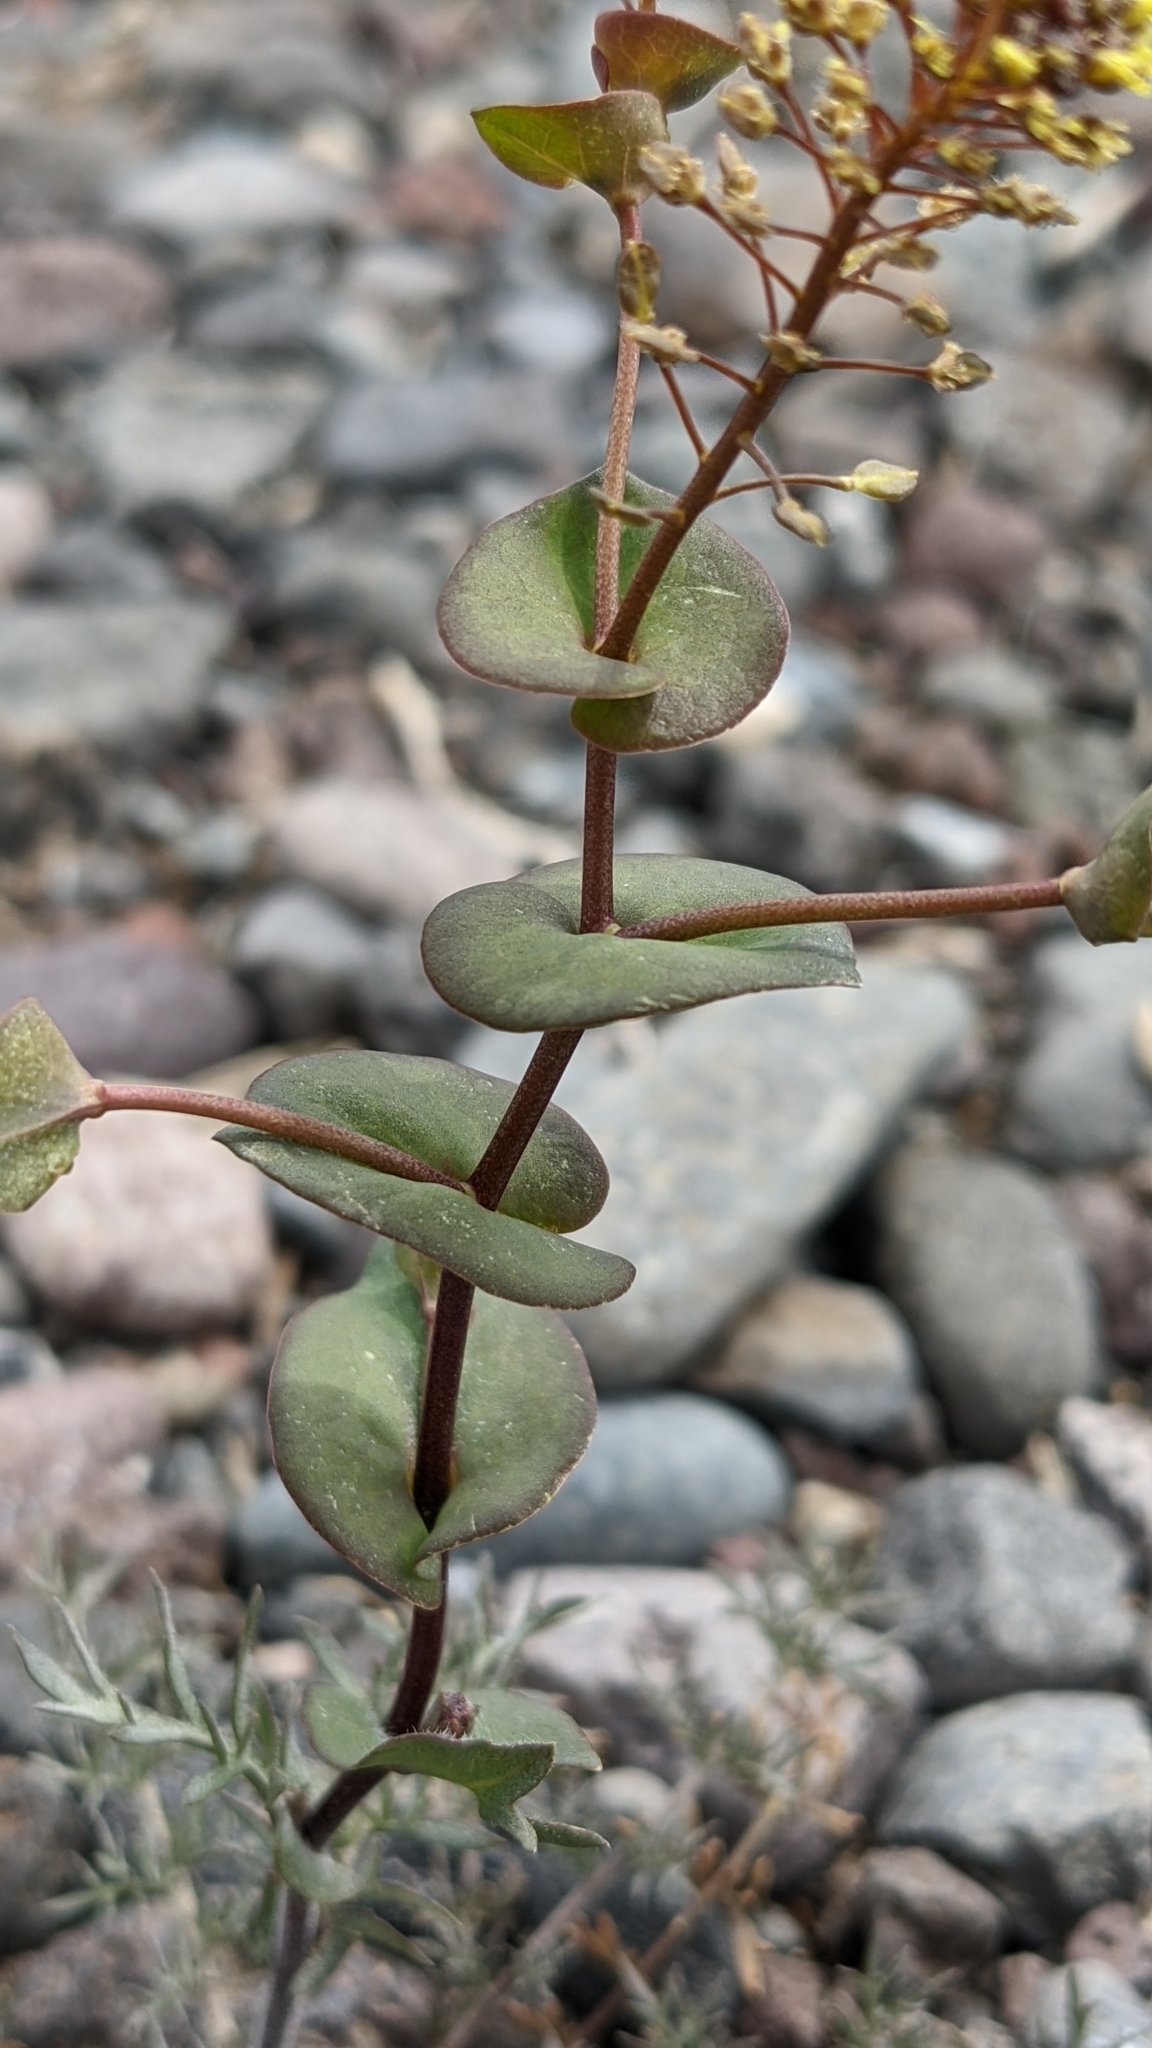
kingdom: Plantae
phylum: Tracheophyta
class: Magnoliopsida
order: Brassicales
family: Brassicaceae
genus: Lepidium
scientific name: Lepidium perfoliatum
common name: Perfoliate pepperwort
